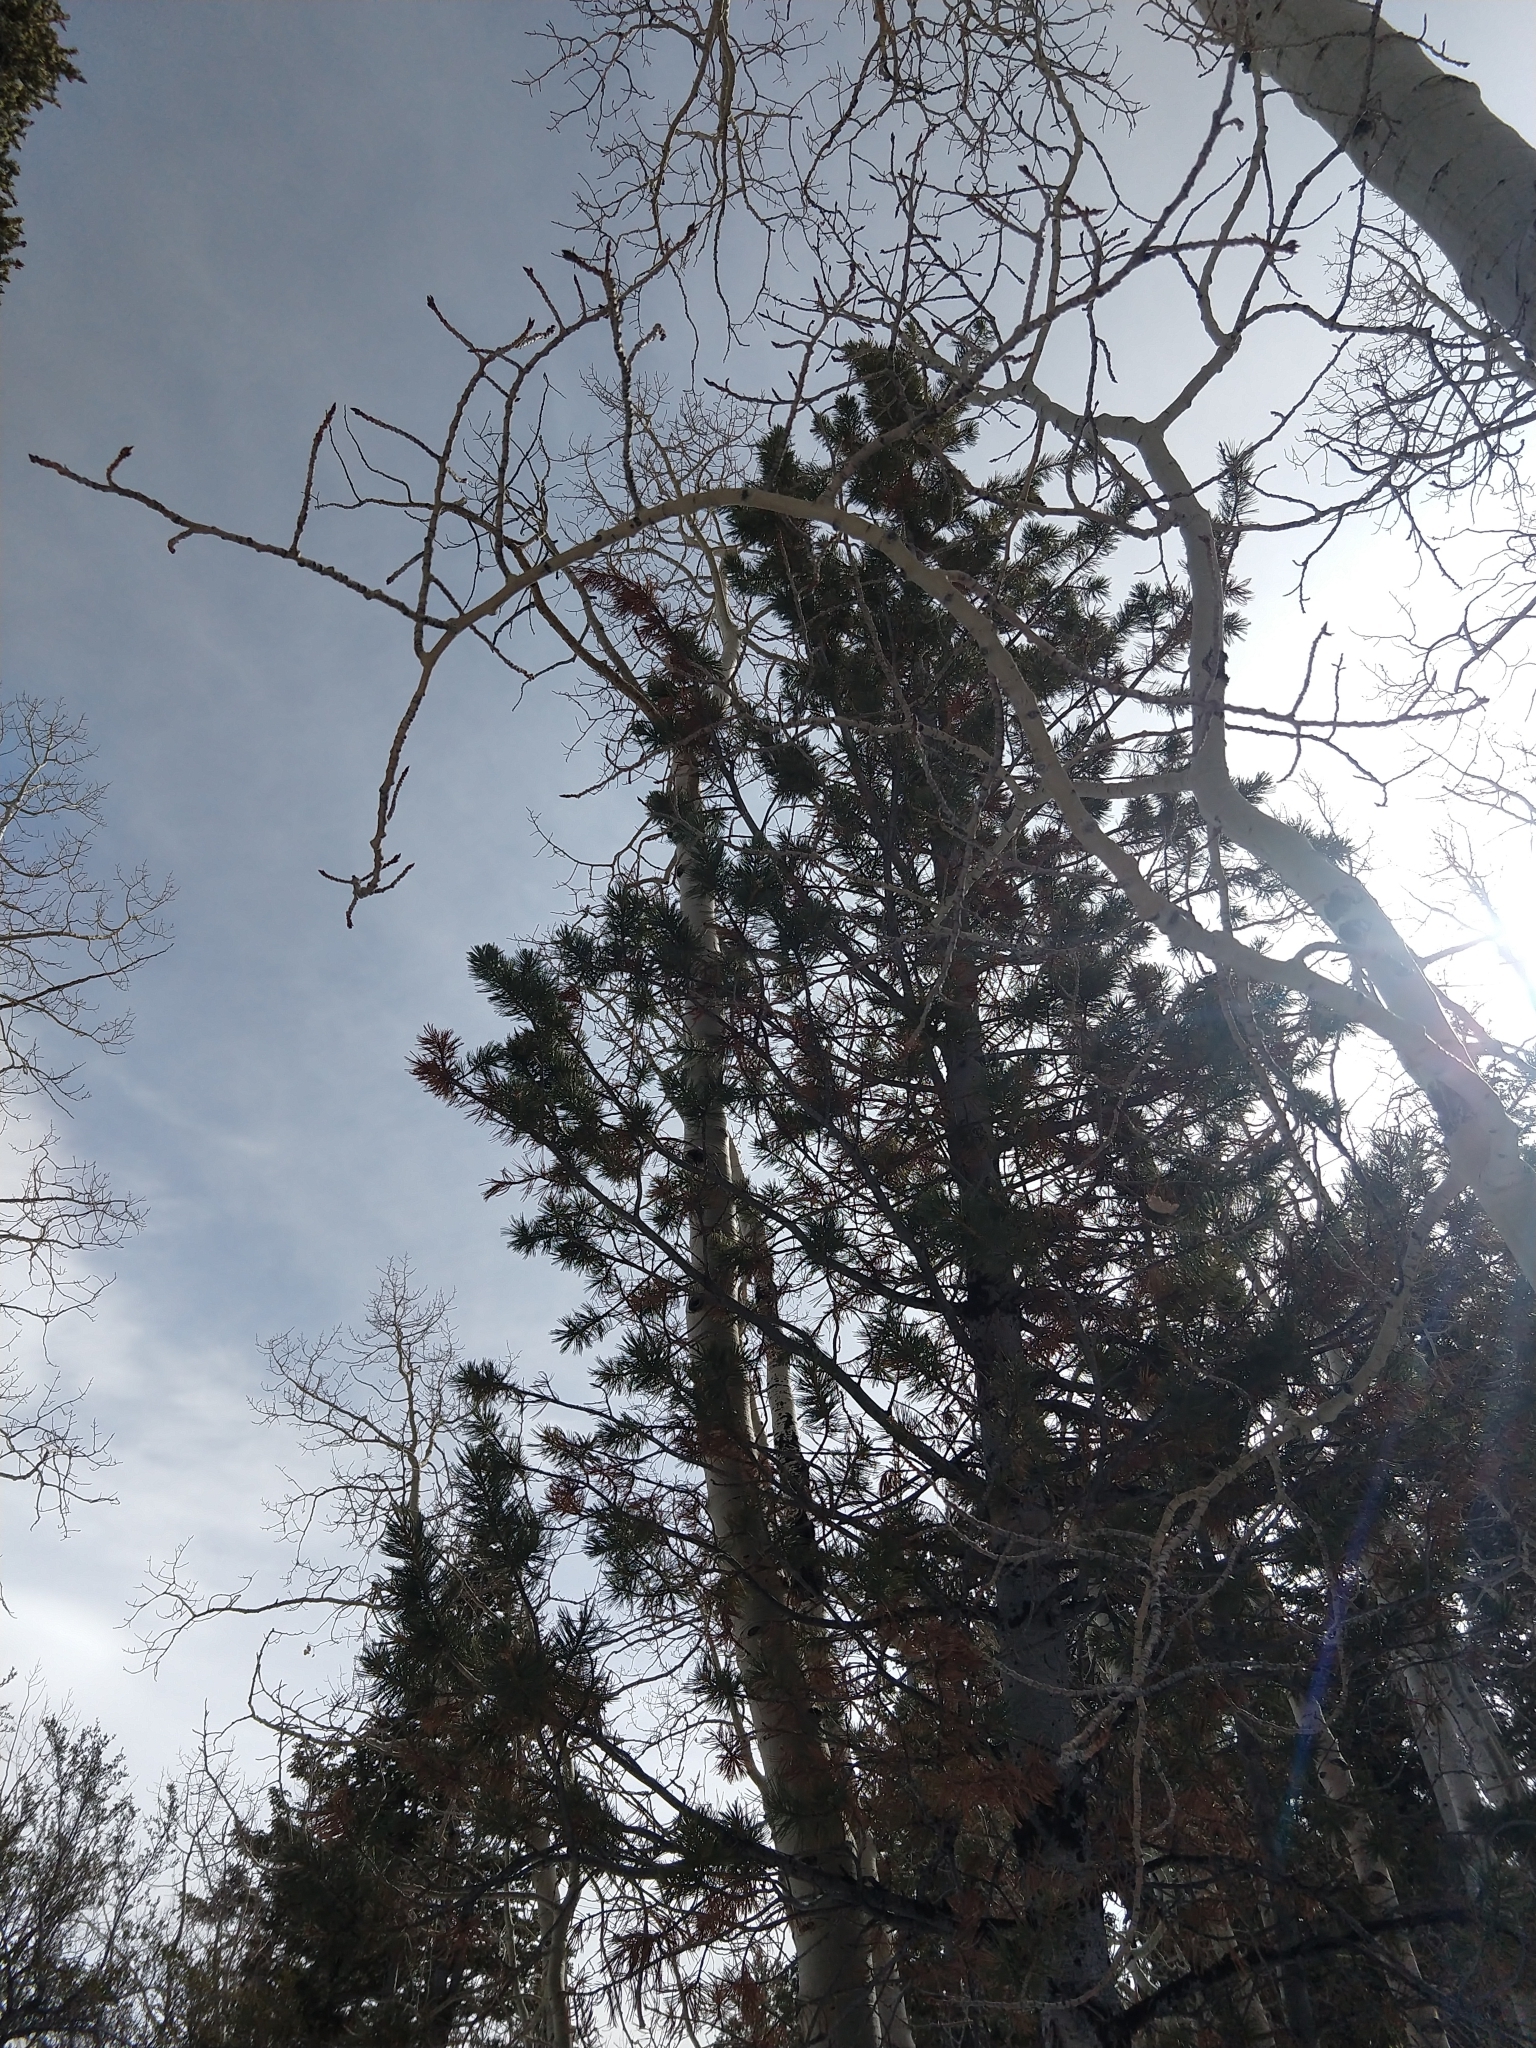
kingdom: Plantae
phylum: Tracheophyta
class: Pinopsida
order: Pinales
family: Pinaceae
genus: Pinus
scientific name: Pinus flexilis
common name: Limber pine
